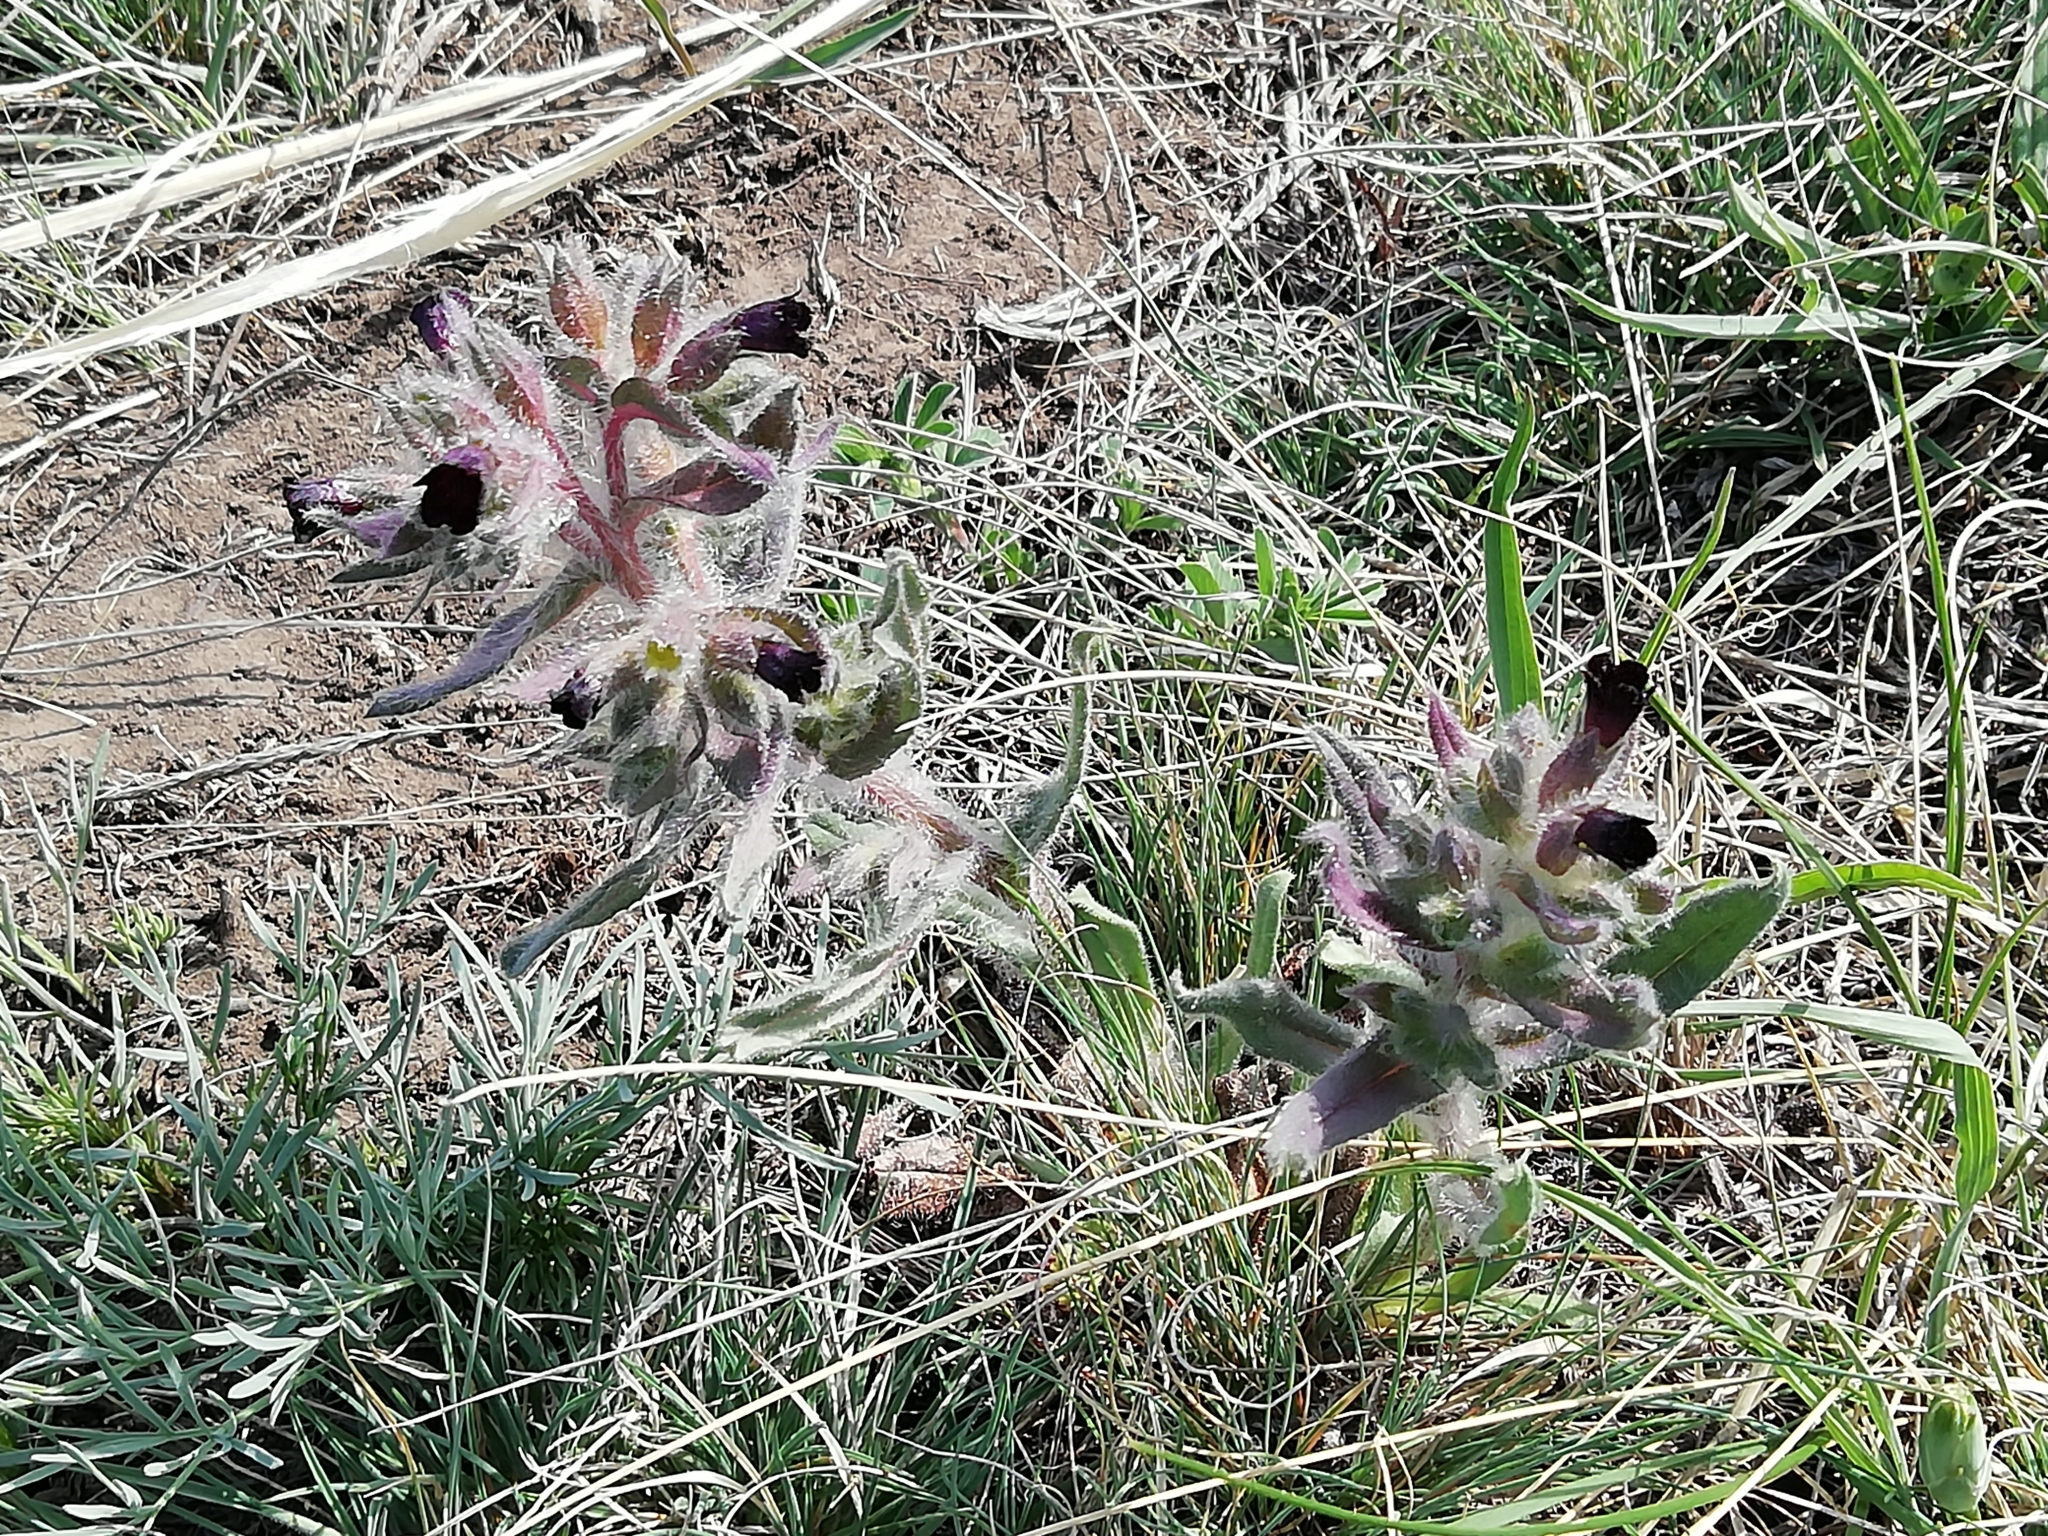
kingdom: Plantae
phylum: Tracheophyta
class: Magnoliopsida
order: Boraginales
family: Boraginaceae
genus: Nonea
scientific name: Nonea pulla
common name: Brown nonea
